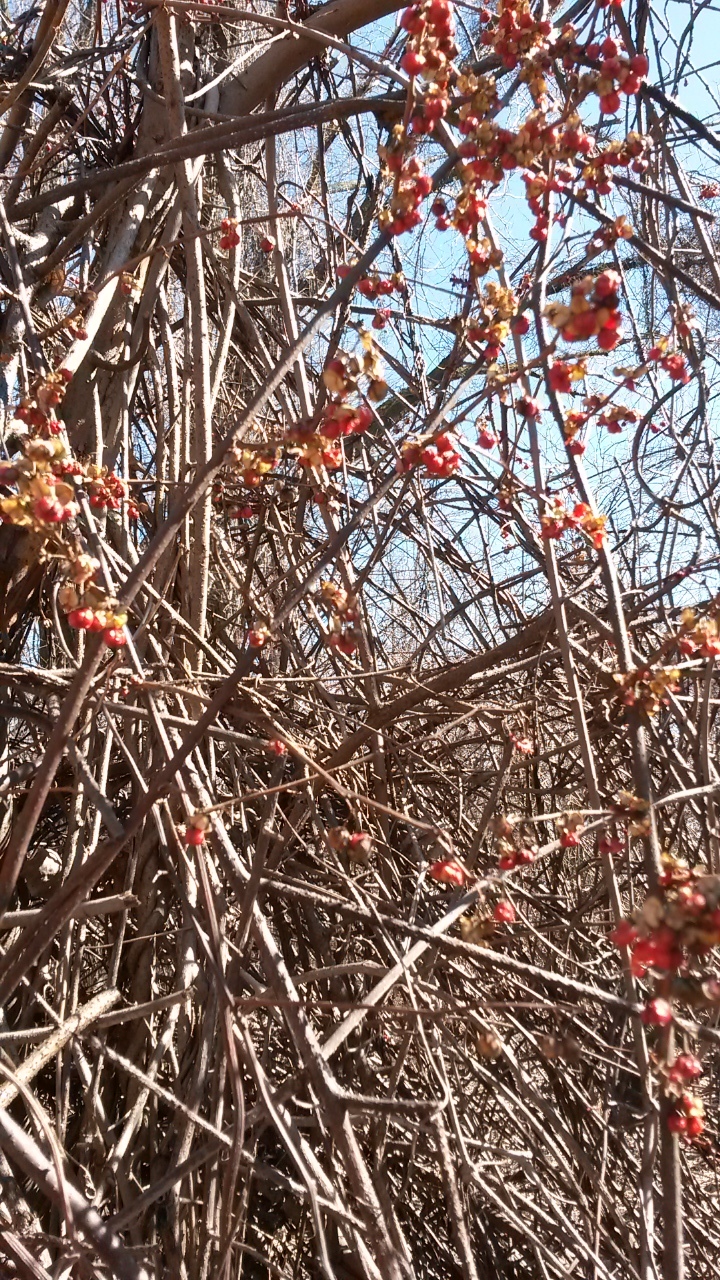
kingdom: Plantae
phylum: Tracheophyta
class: Magnoliopsida
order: Celastrales
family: Celastraceae
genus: Celastrus
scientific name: Celastrus orbiculatus
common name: Oriental bittersweet
